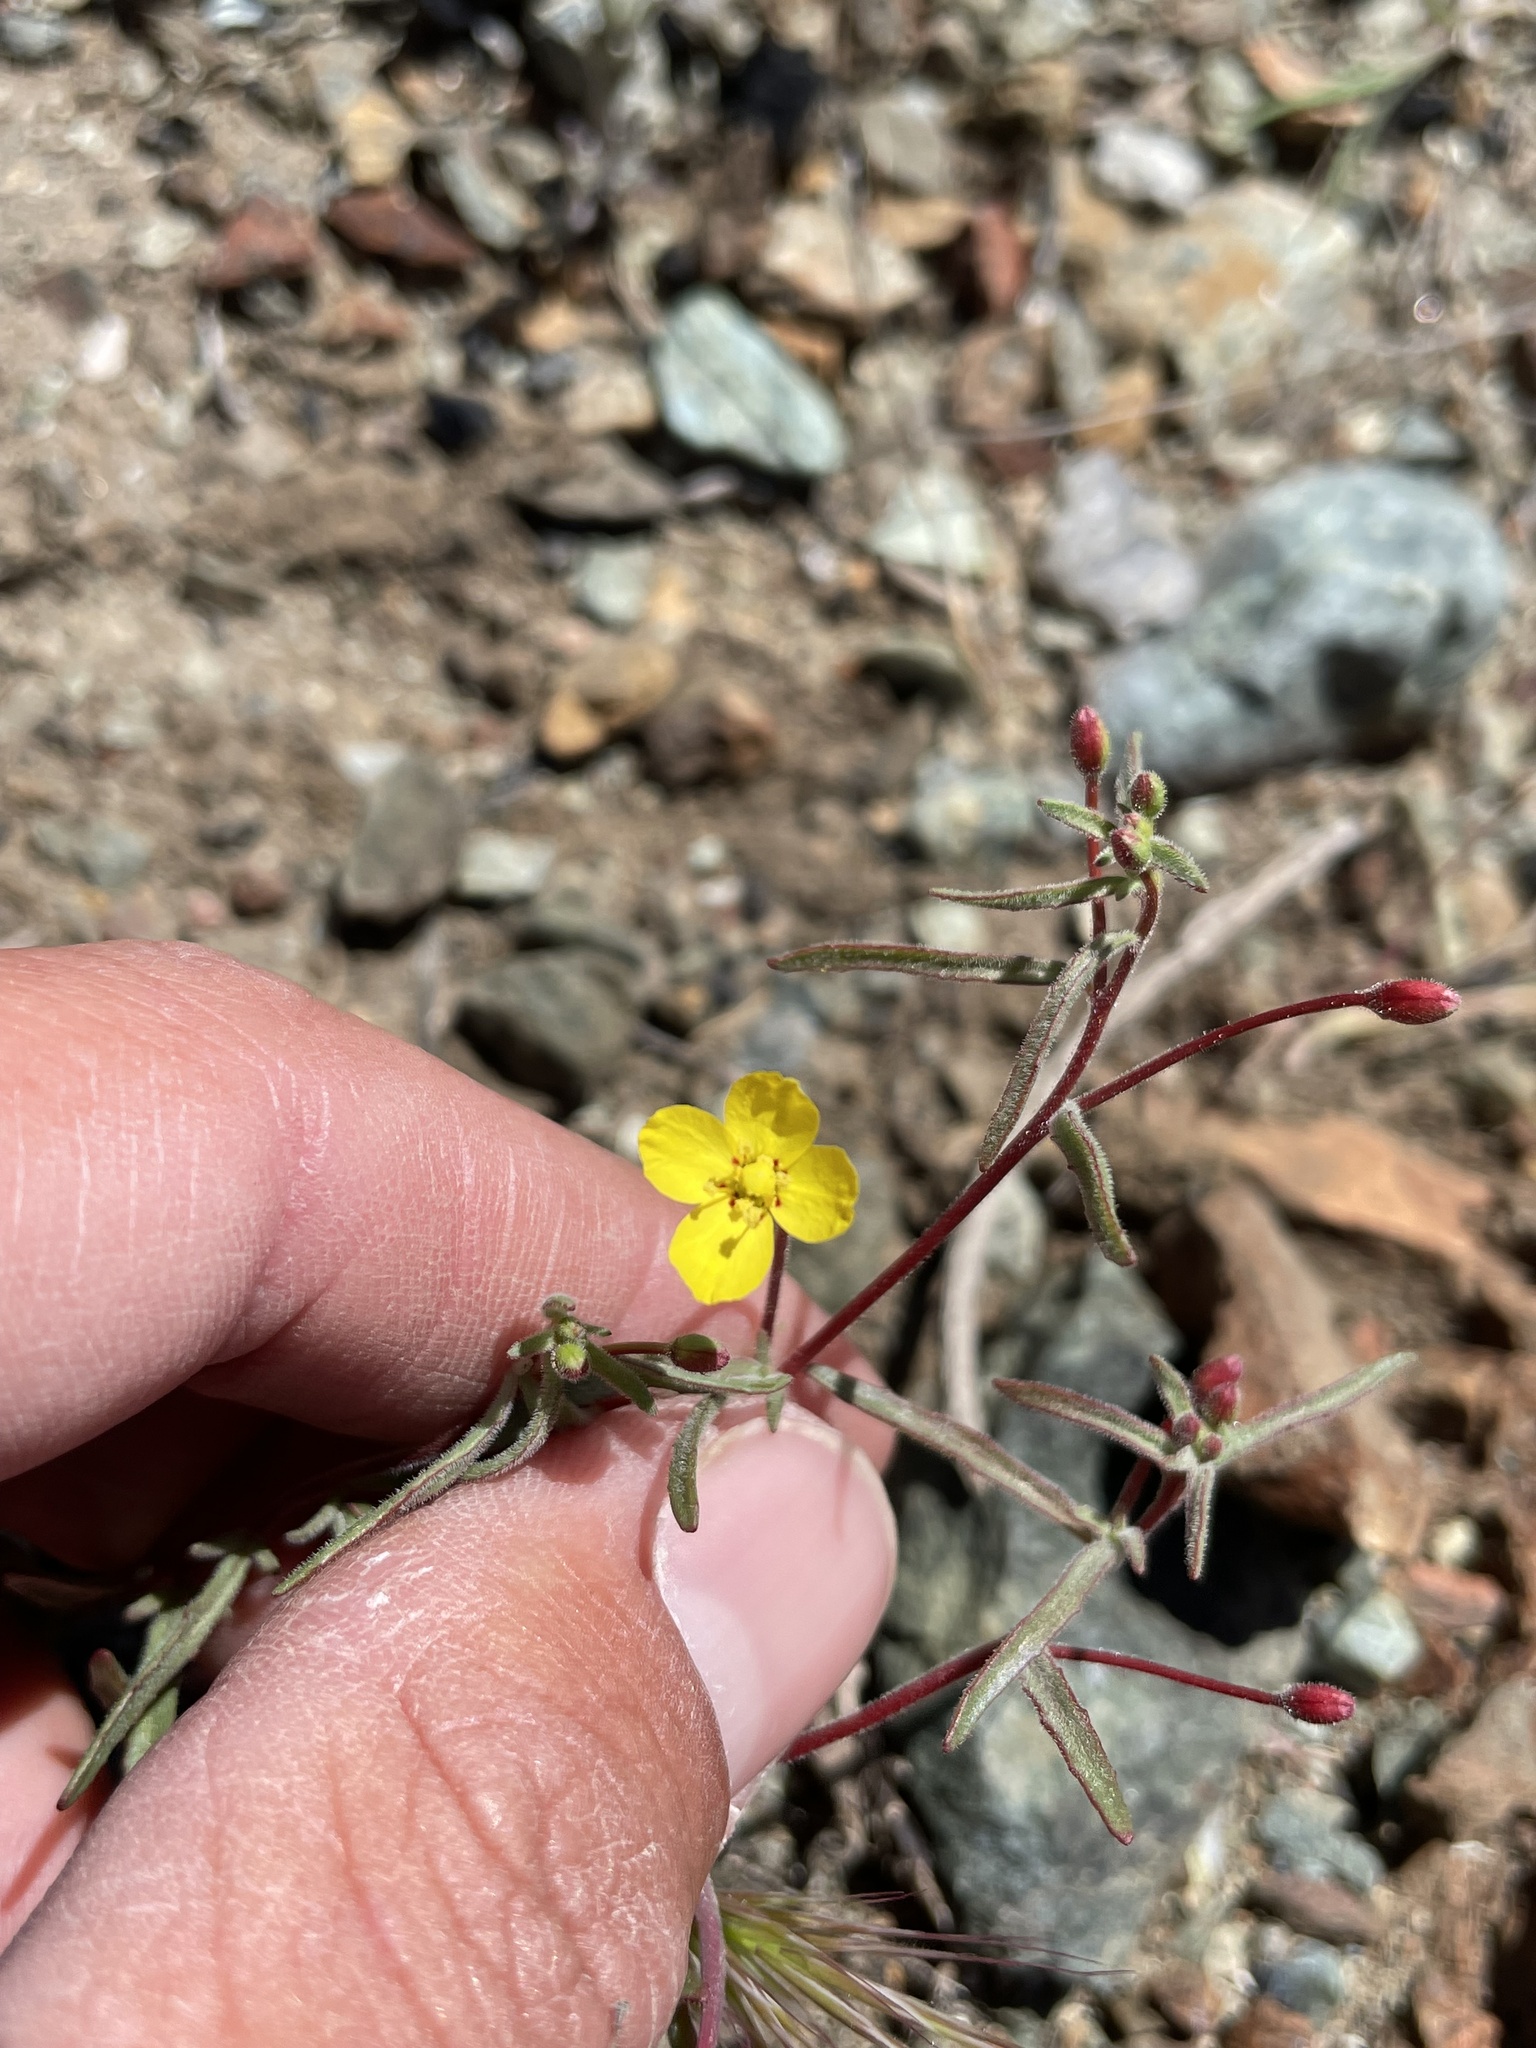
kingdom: Plantae
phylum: Tracheophyta
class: Magnoliopsida
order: Myrtales
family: Onagraceae
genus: Camissonia
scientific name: Camissonia benitensis
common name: San benito-evening-primrose
